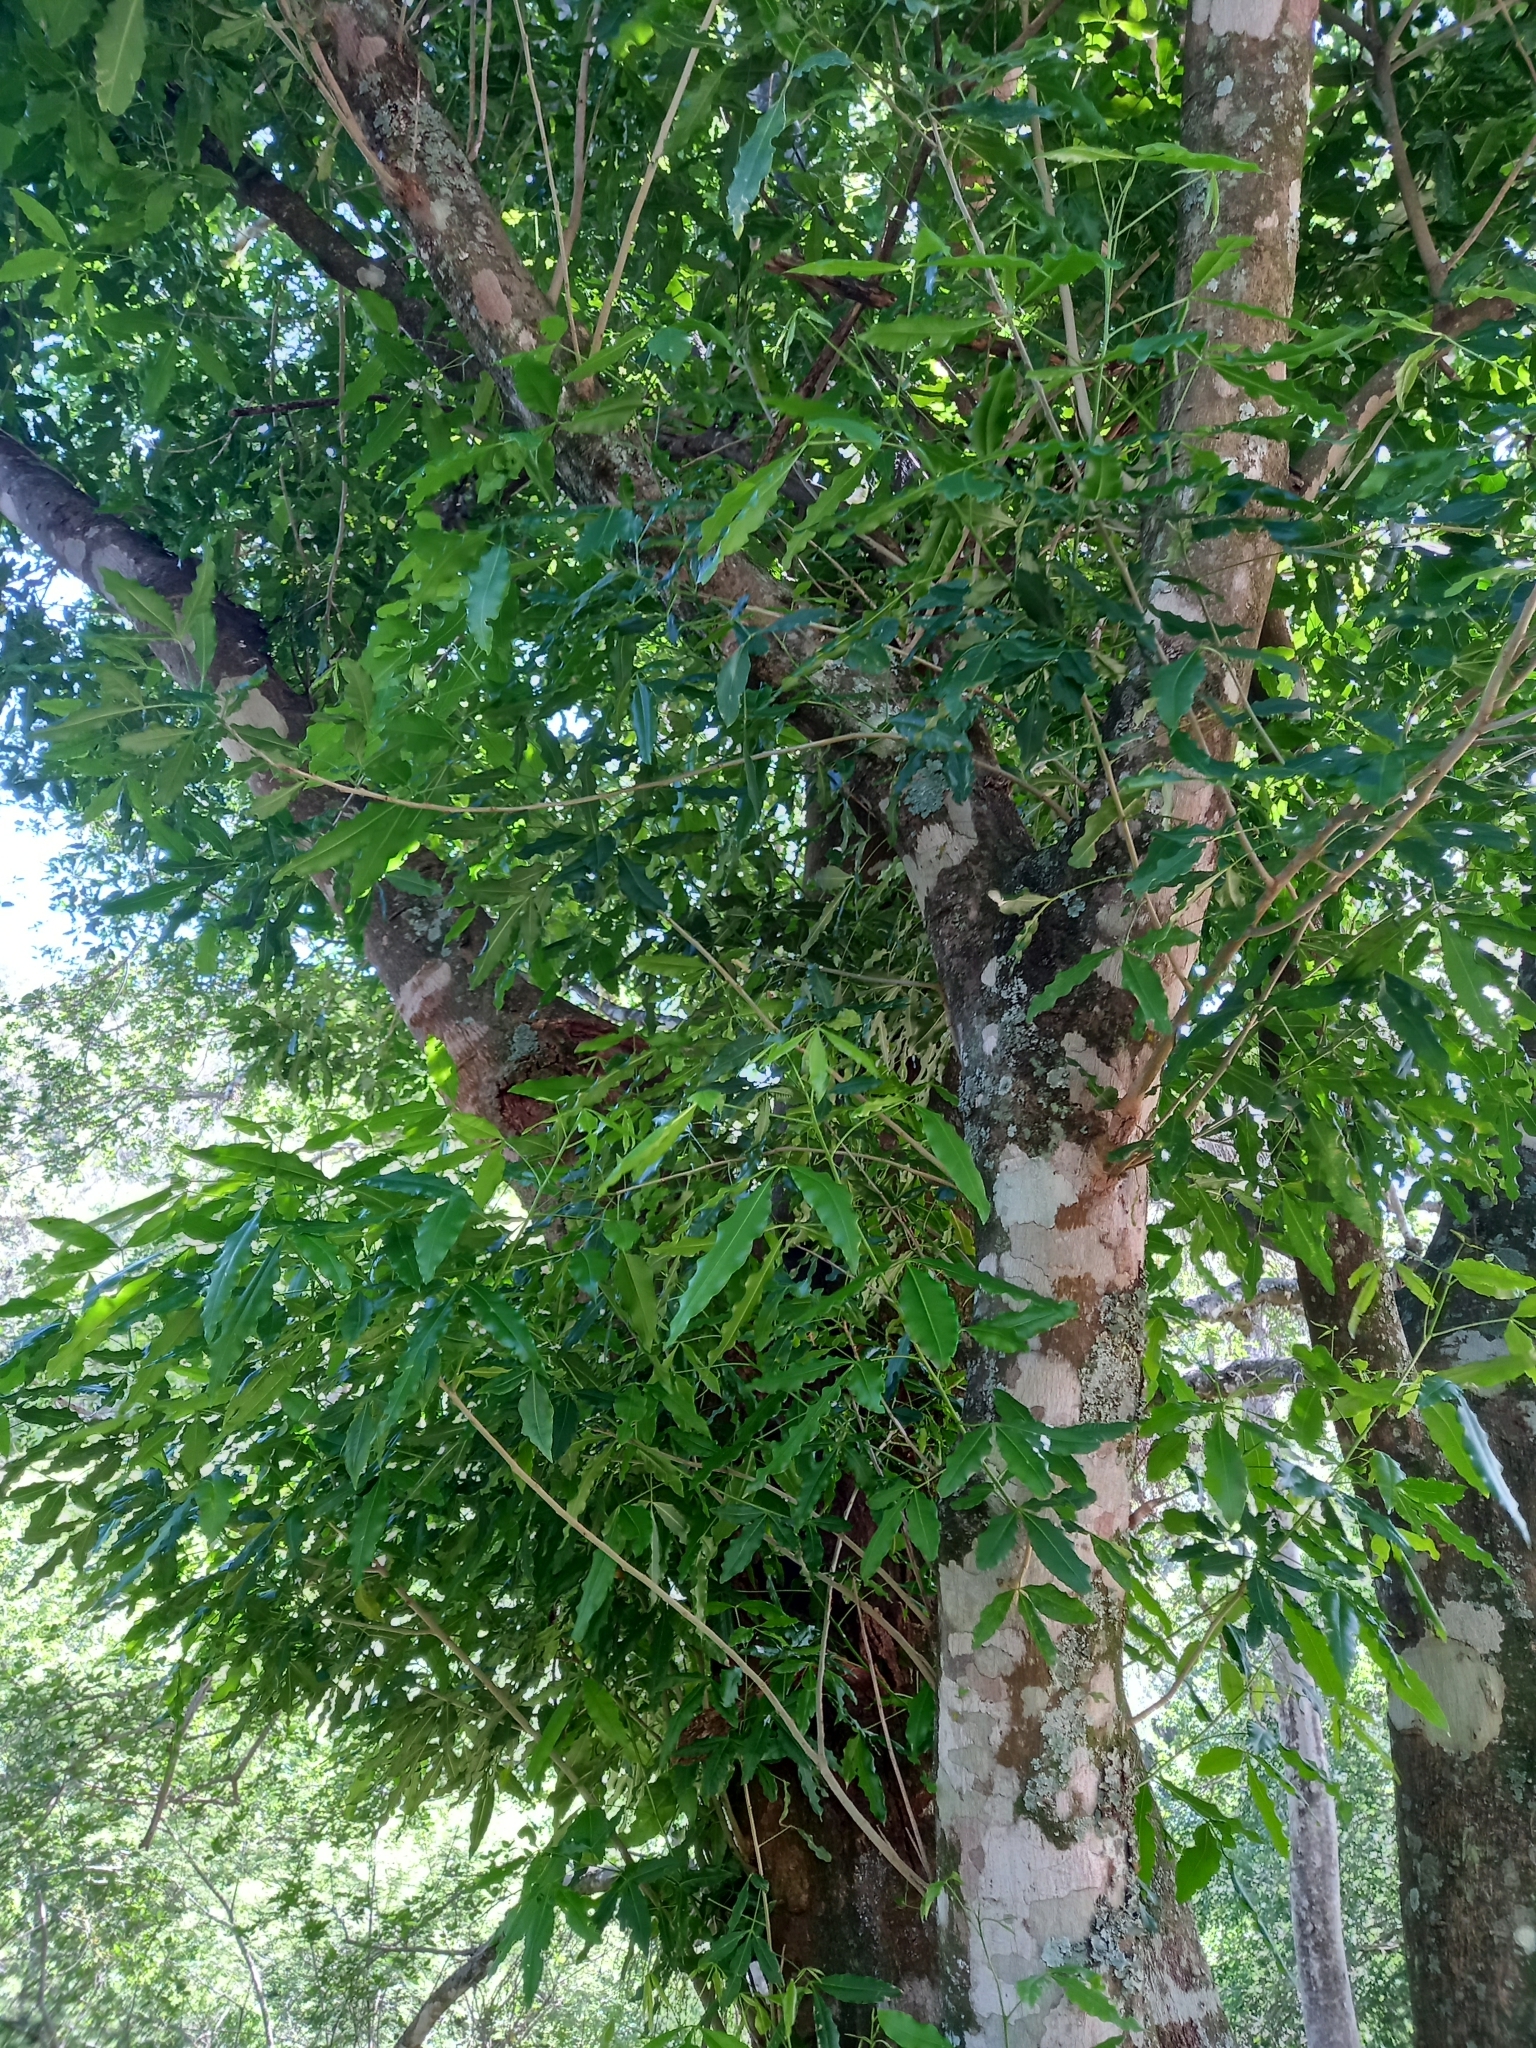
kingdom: Plantae
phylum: Tracheophyta
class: Magnoliopsida
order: Sapindales
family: Rutaceae
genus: Vepris
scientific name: Vepris lanceolata
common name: White ironwood
